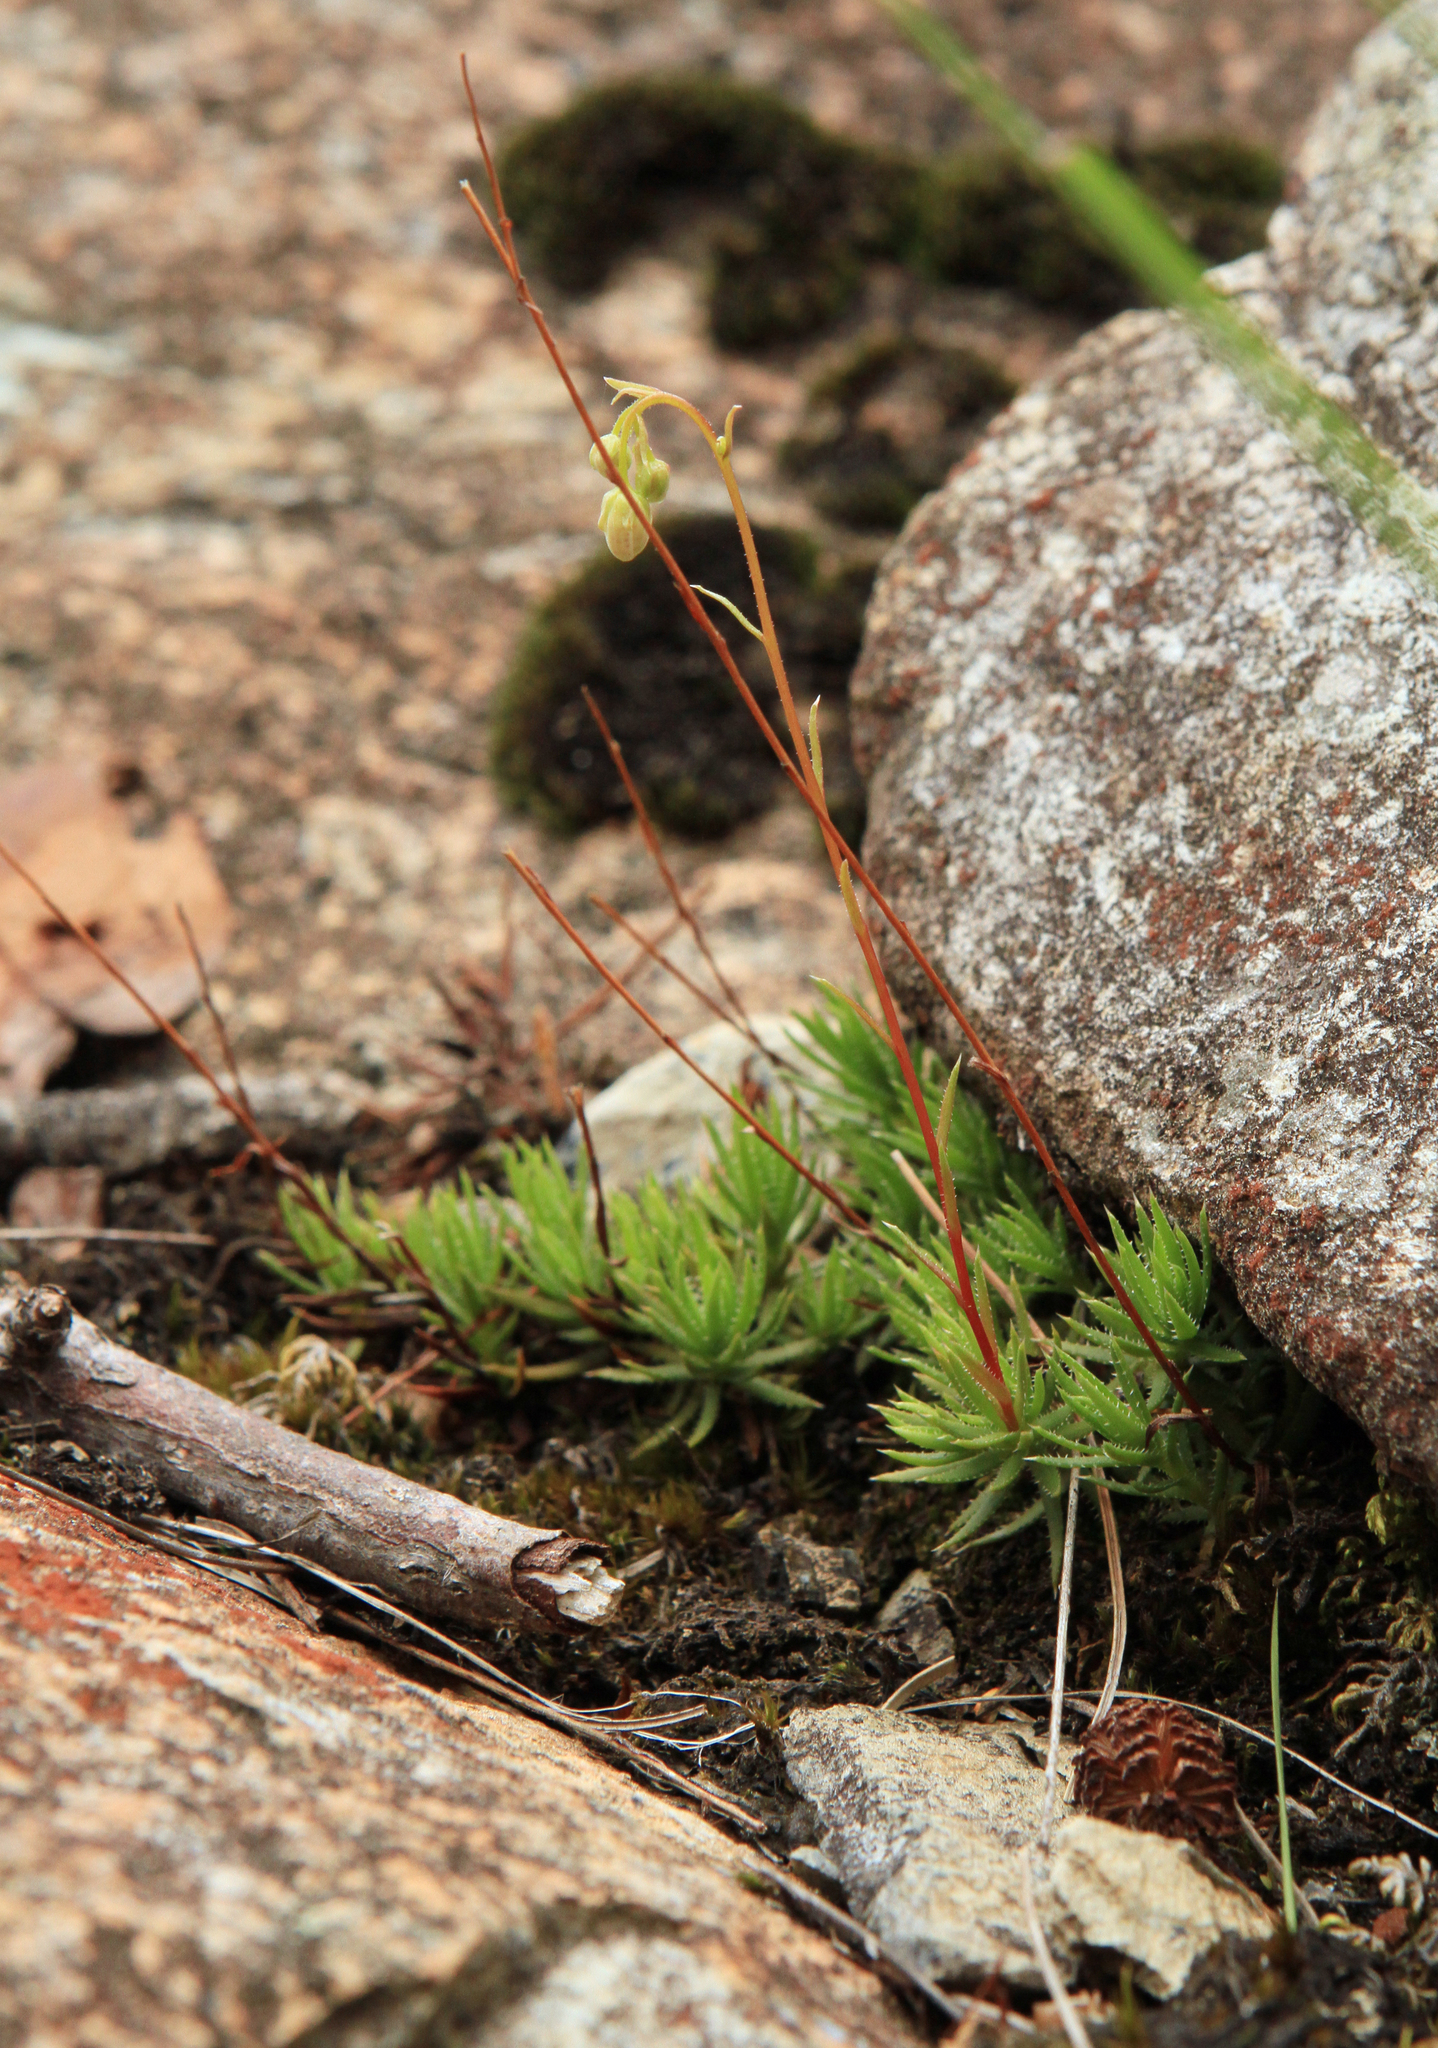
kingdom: Plantae
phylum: Tracheophyta
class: Magnoliopsida
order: Saxifragales
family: Saxifragaceae
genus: Saxifraga
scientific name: Saxifraga
